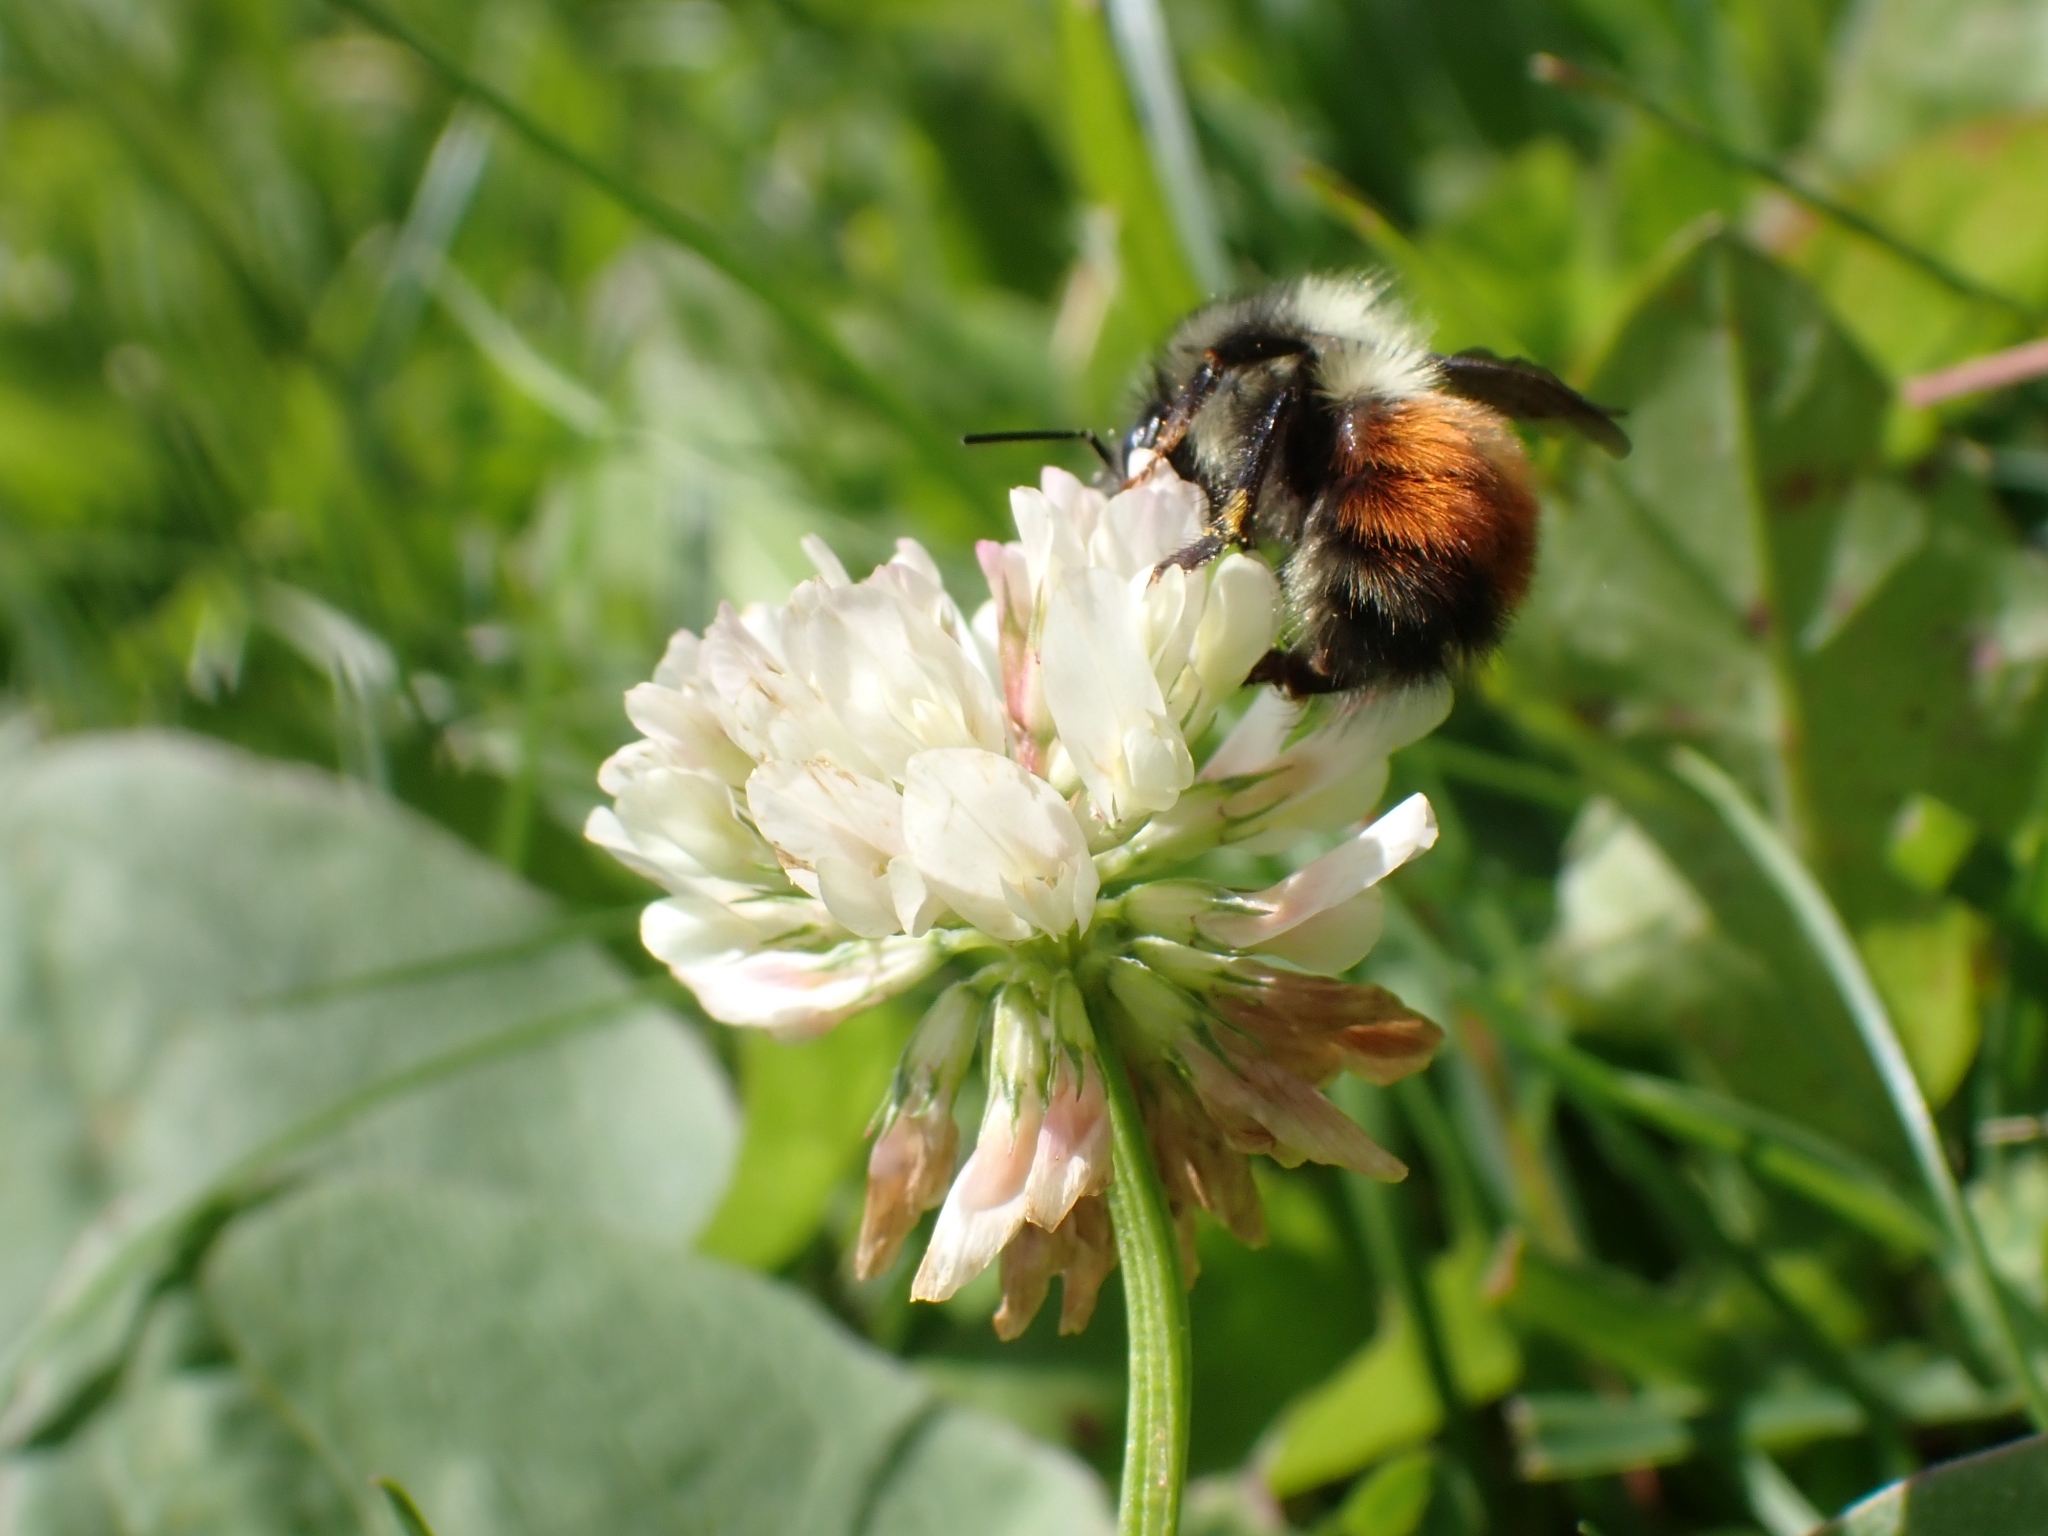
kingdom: Animalia
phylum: Arthropoda
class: Insecta
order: Hymenoptera
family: Apidae
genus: Bombus
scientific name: Bombus melanopygus
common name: Black tail bumble bee
